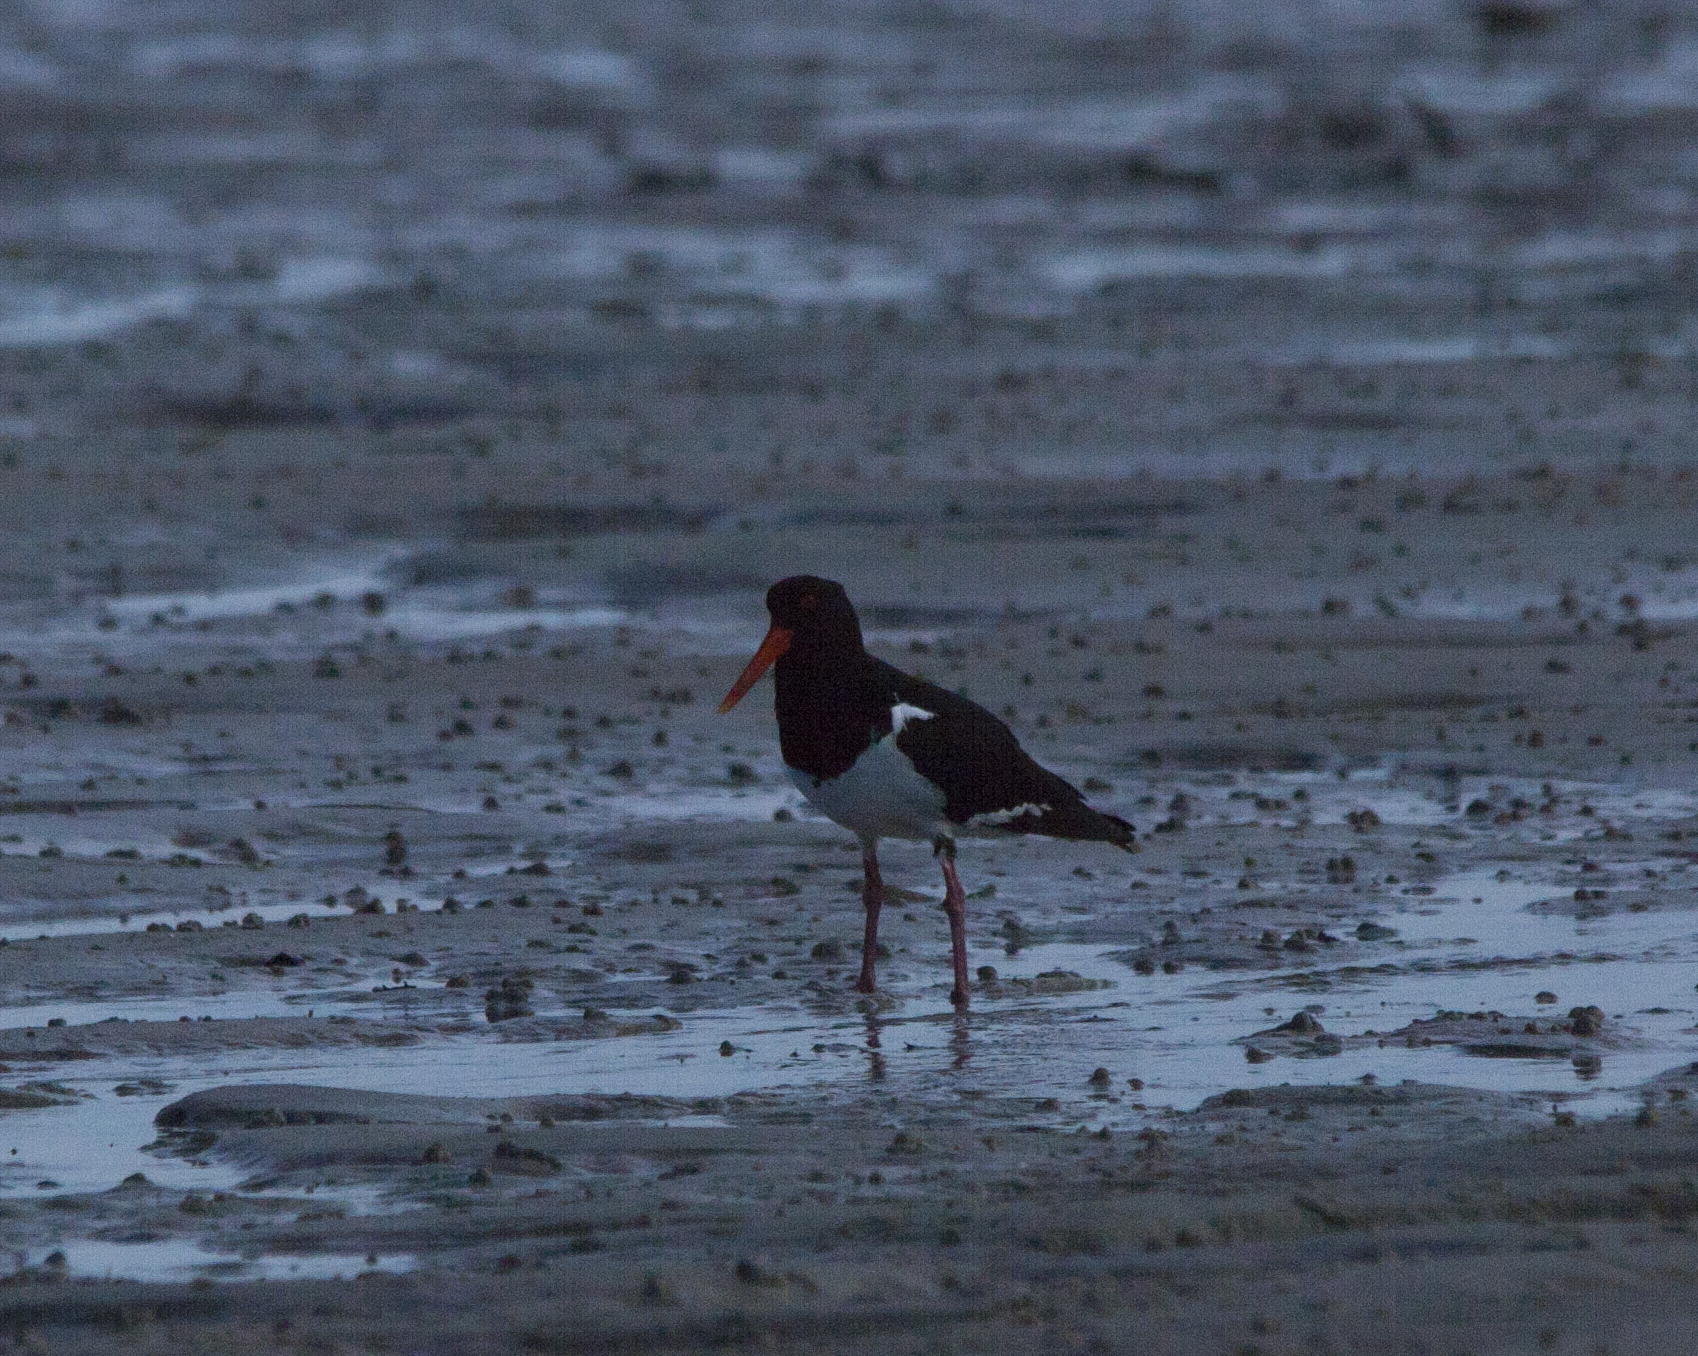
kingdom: Animalia
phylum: Chordata
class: Aves
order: Charadriiformes
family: Haematopodidae
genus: Haematopus
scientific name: Haematopus longirostris
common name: Pied oystercatcher
